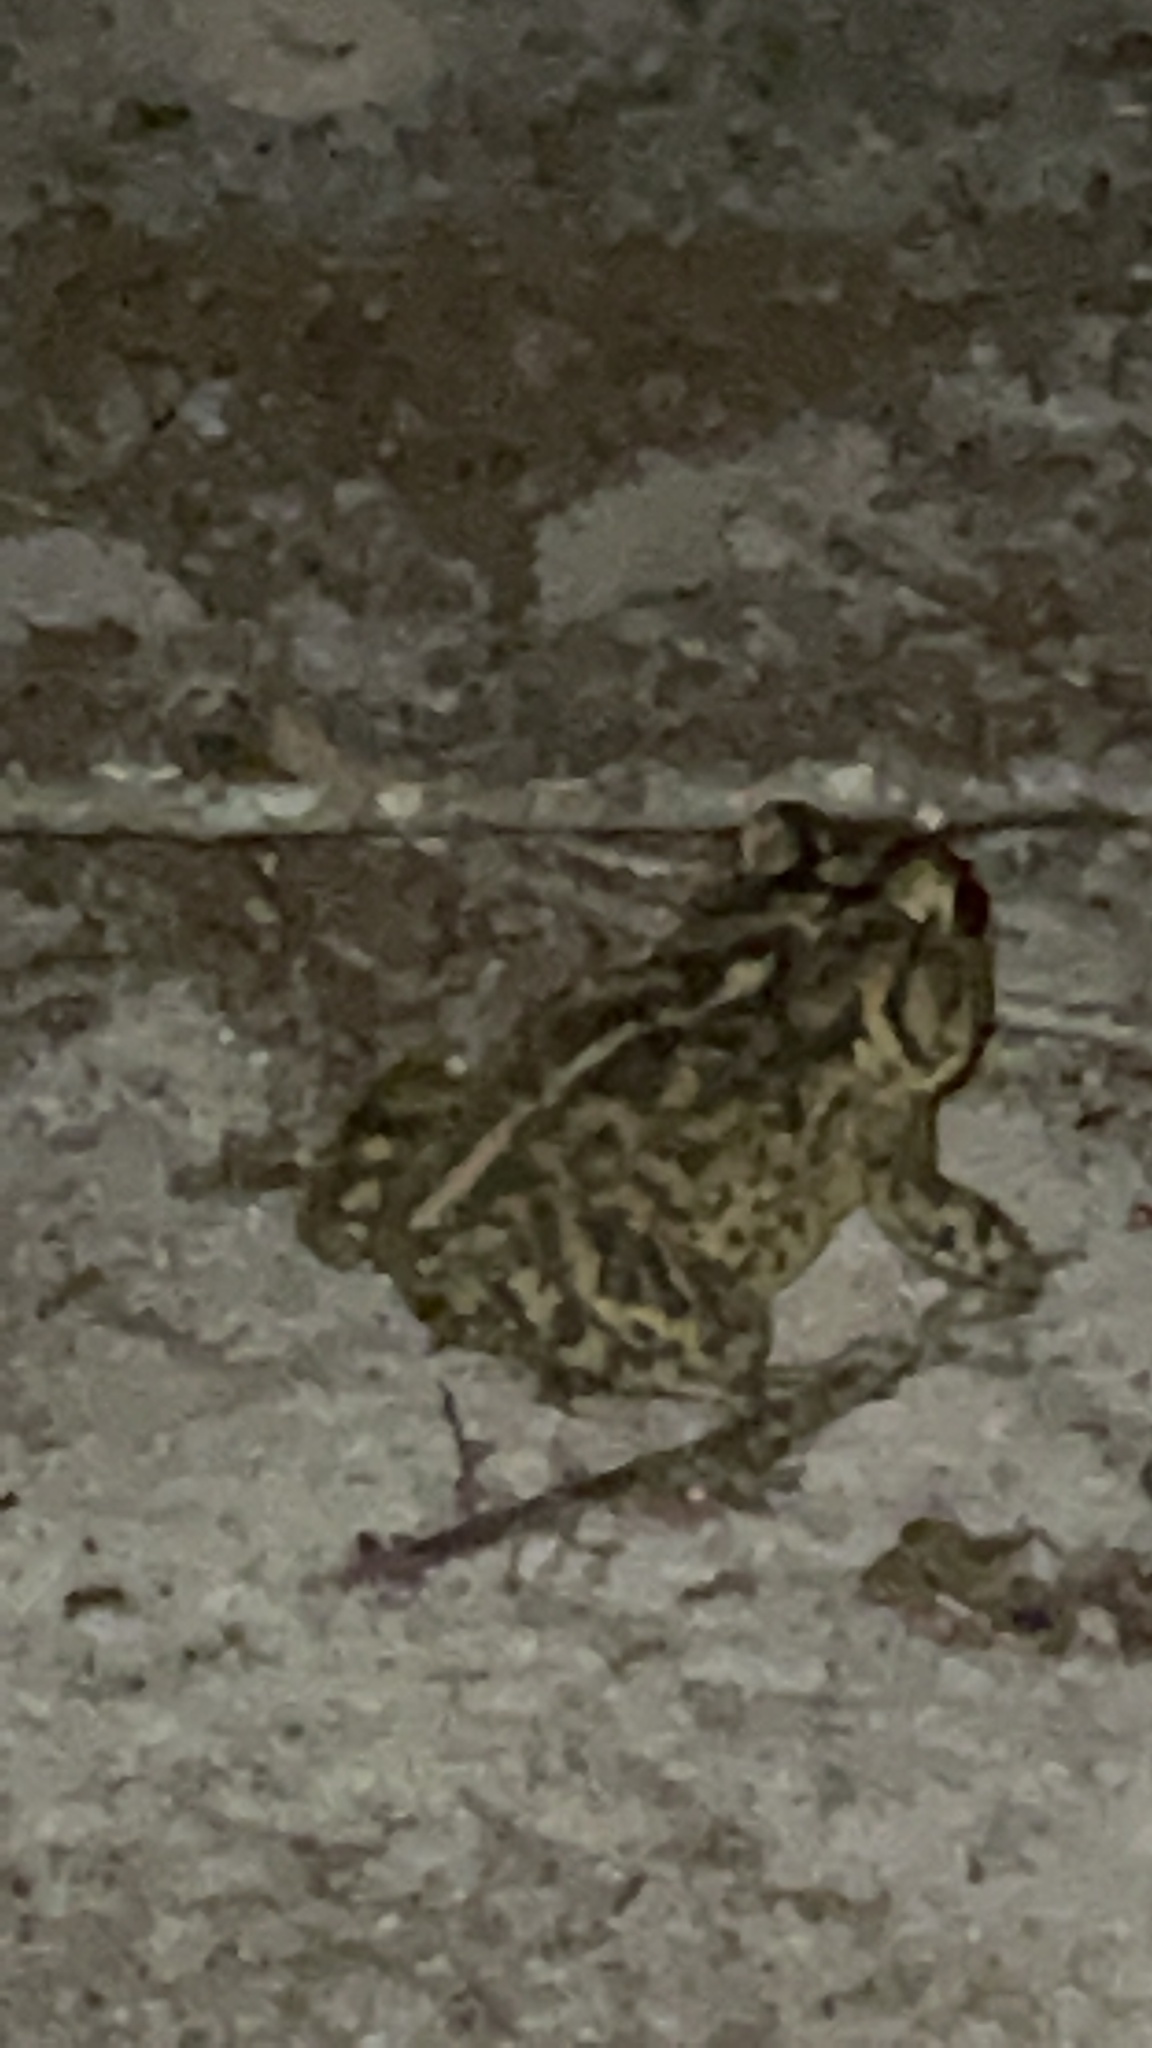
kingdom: Animalia
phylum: Chordata
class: Amphibia
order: Anura
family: Bufonidae
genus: Anaxyrus
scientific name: Anaxyrus terrestris
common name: Southern toad
